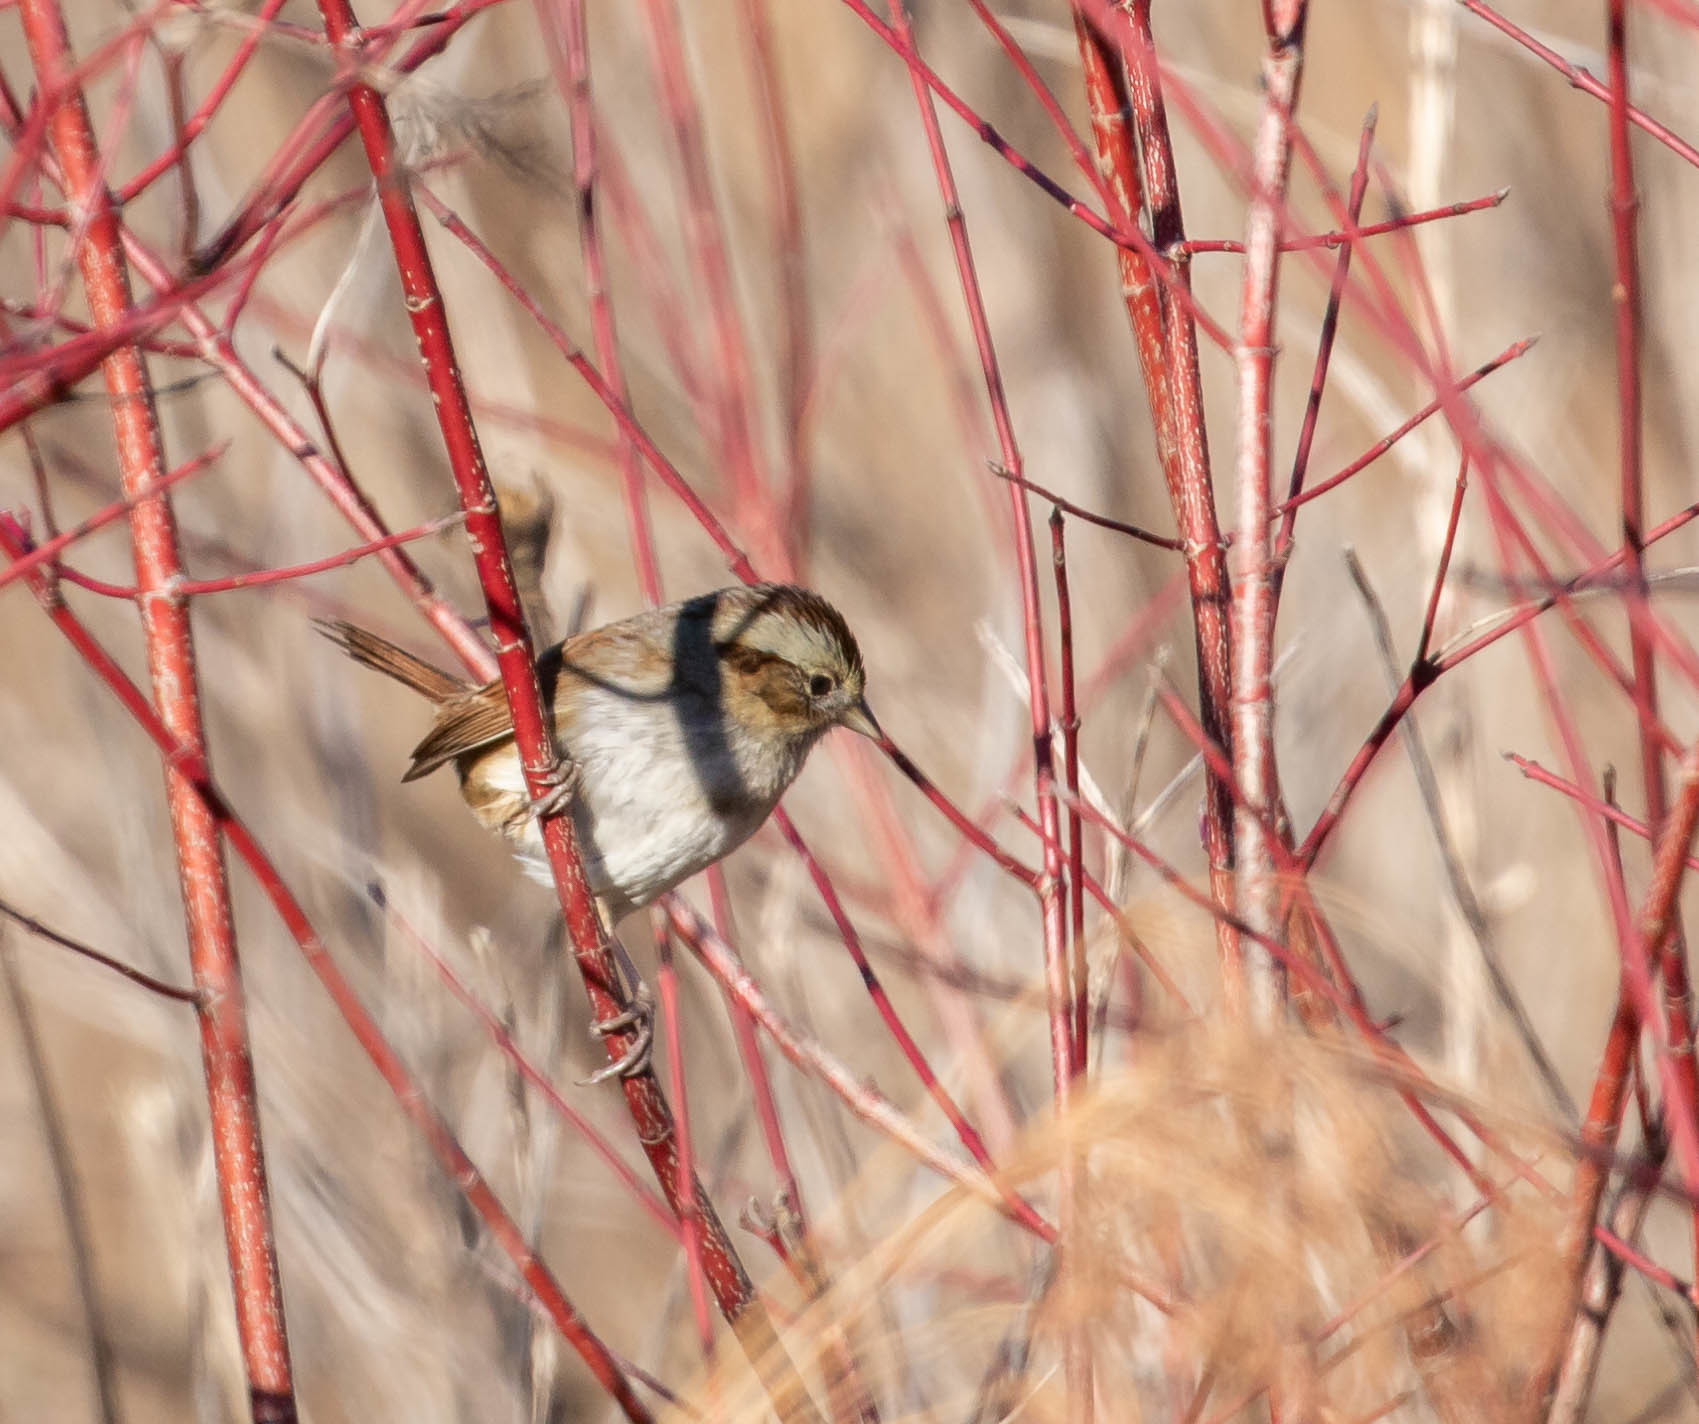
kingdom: Animalia
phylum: Chordata
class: Aves
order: Passeriformes
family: Passerellidae
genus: Melospiza
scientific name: Melospiza georgiana
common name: Swamp sparrow
